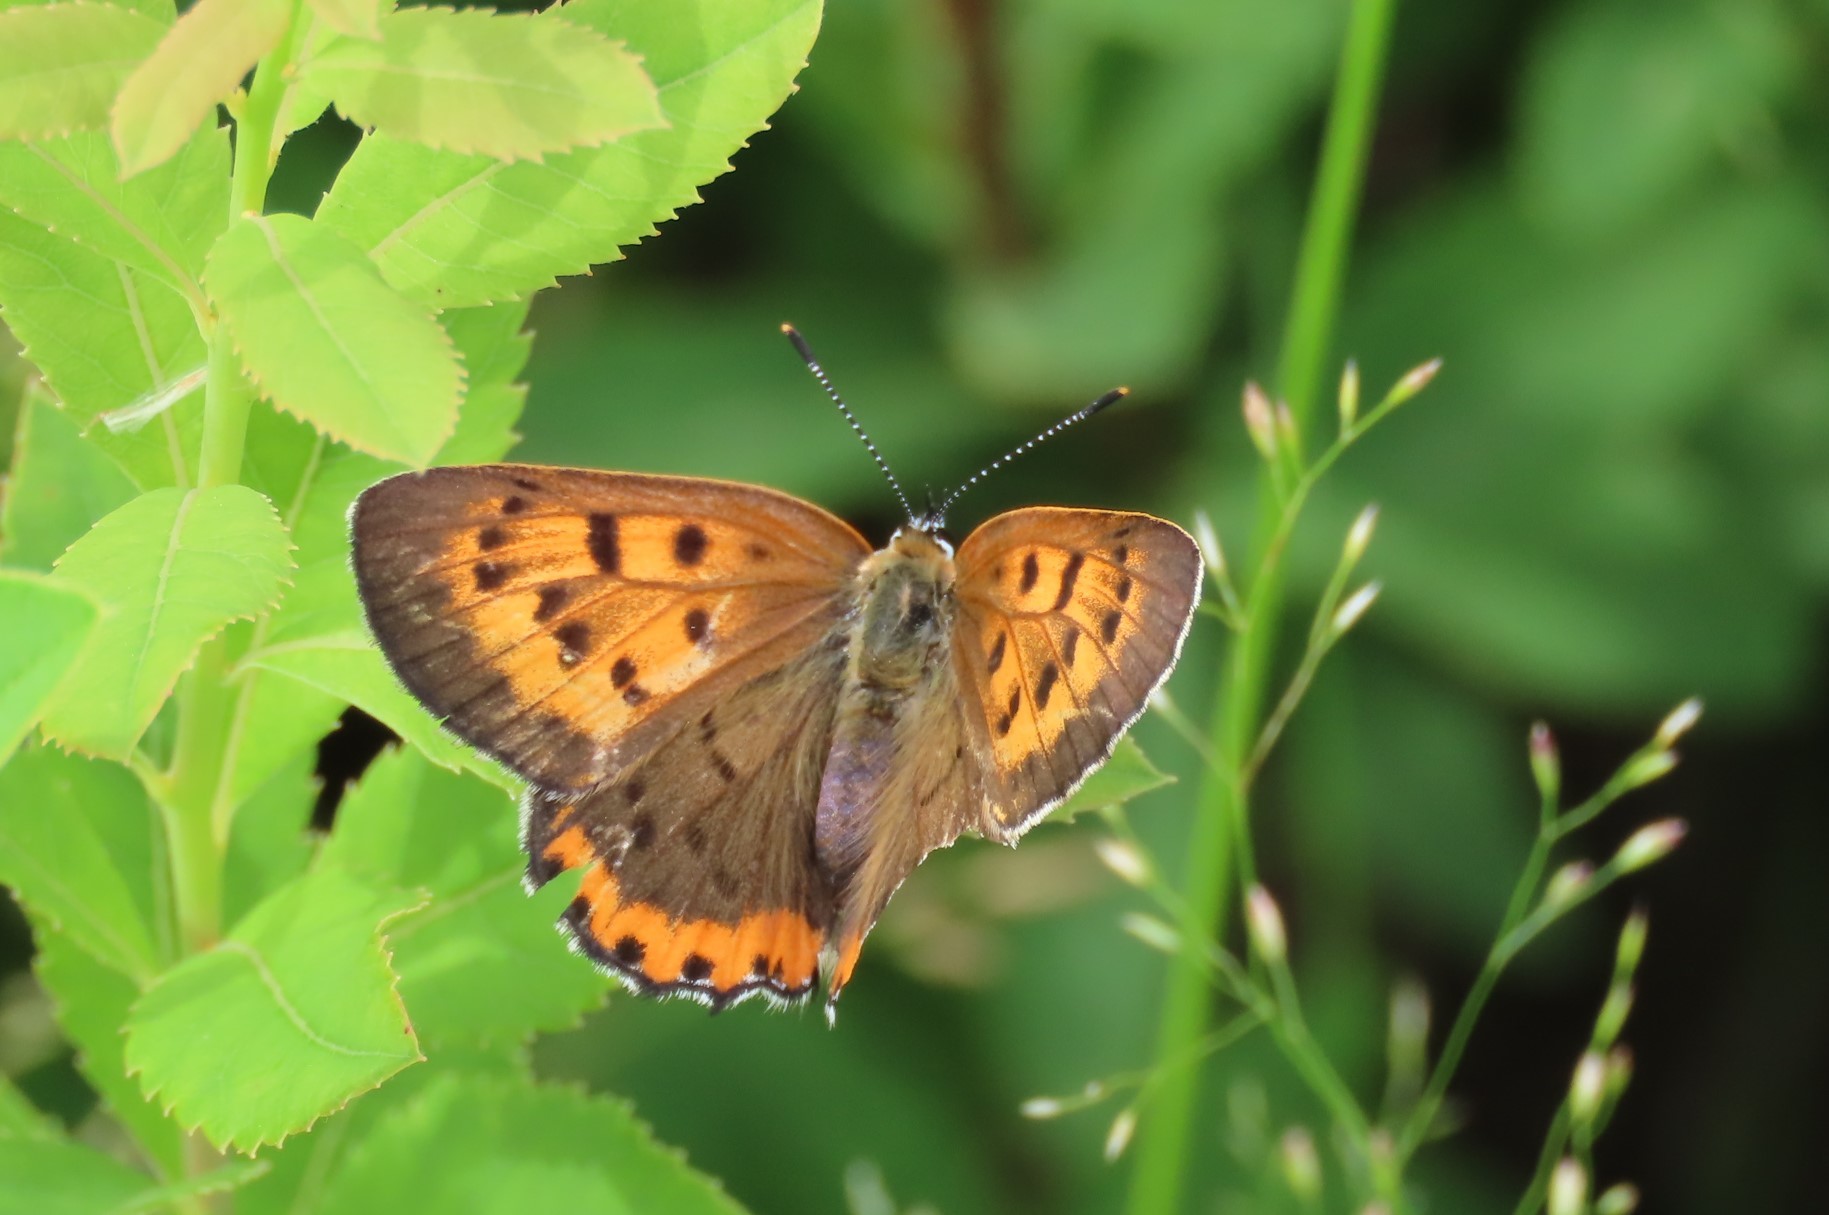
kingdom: Animalia
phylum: Arthropoda
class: Insecta
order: Lepidoptera
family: Lycaenidae
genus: Tharsalea
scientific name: Tharsalea hyllus
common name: Bronze copper
